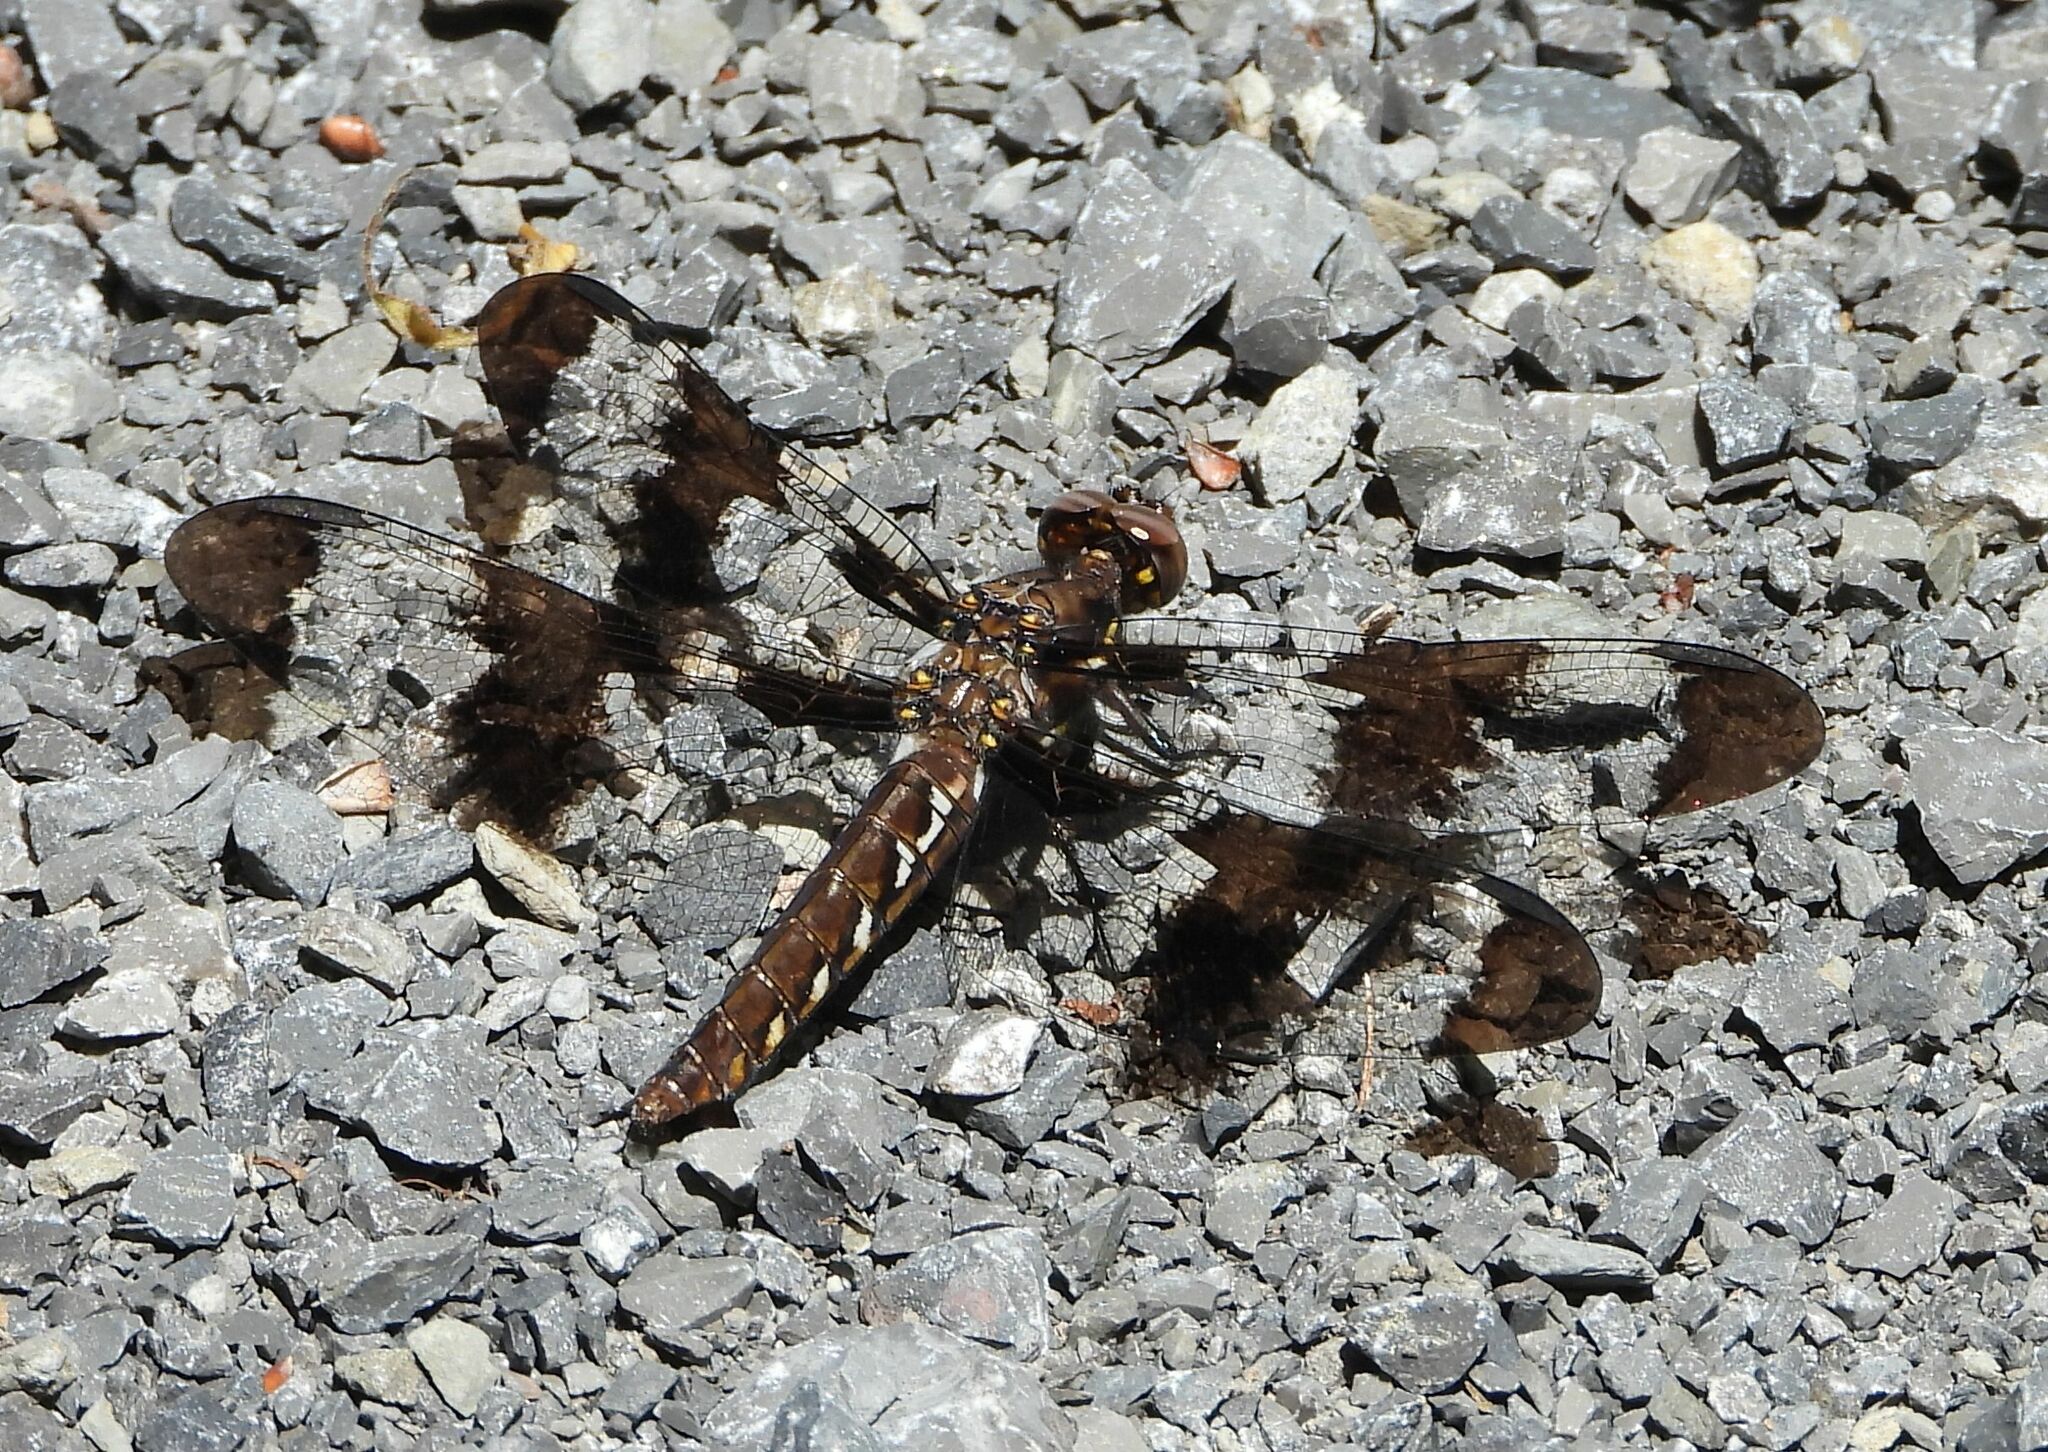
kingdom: Animalia
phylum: Arthropoda
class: Insecta
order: Odonata
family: Libellulidae
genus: Plathemis
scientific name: Plathemis lydia
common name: Common whitetail
